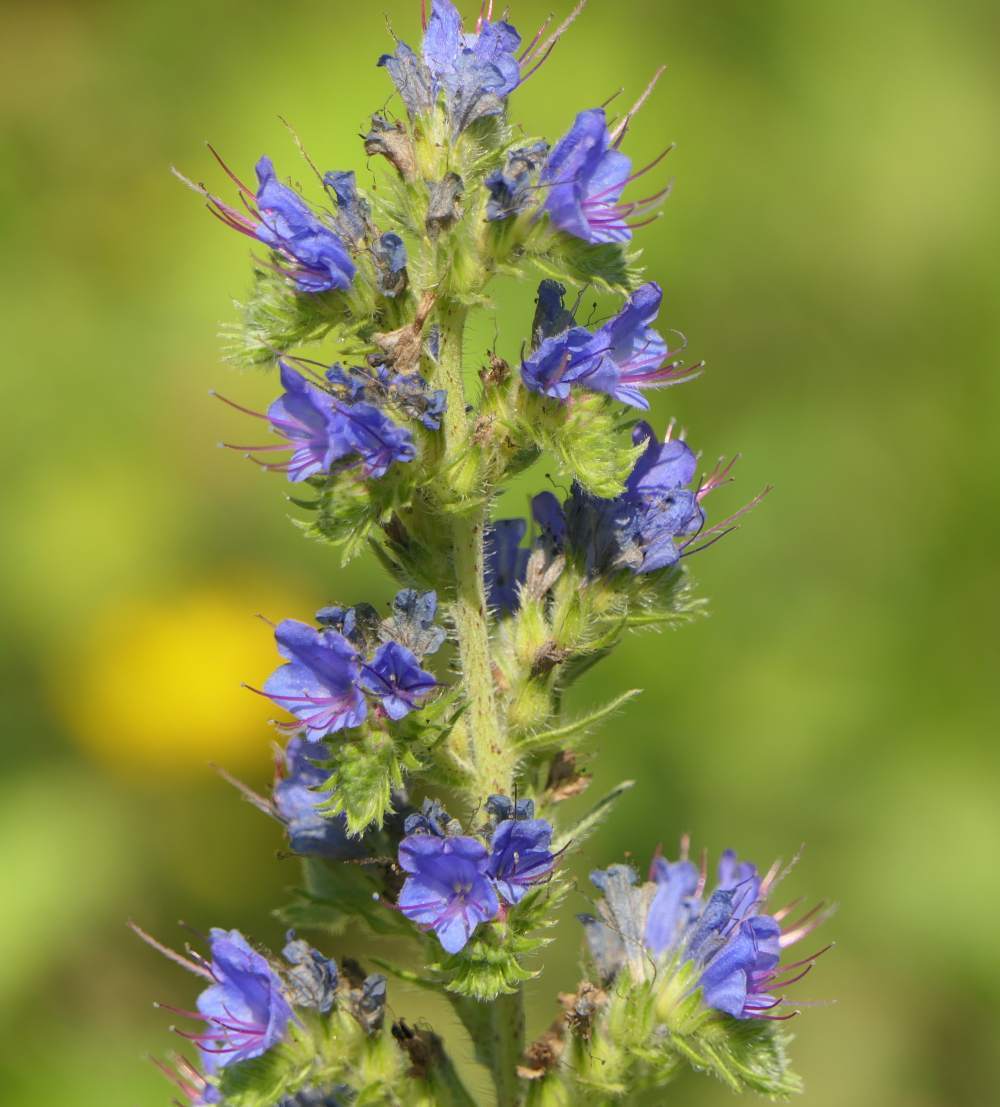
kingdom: Plantae
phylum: Tracheophyta
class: Magnoliopsida
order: Boraginales
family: Boraginaceae
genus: Echium
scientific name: Echium vulgare
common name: Common viper's bugloss
